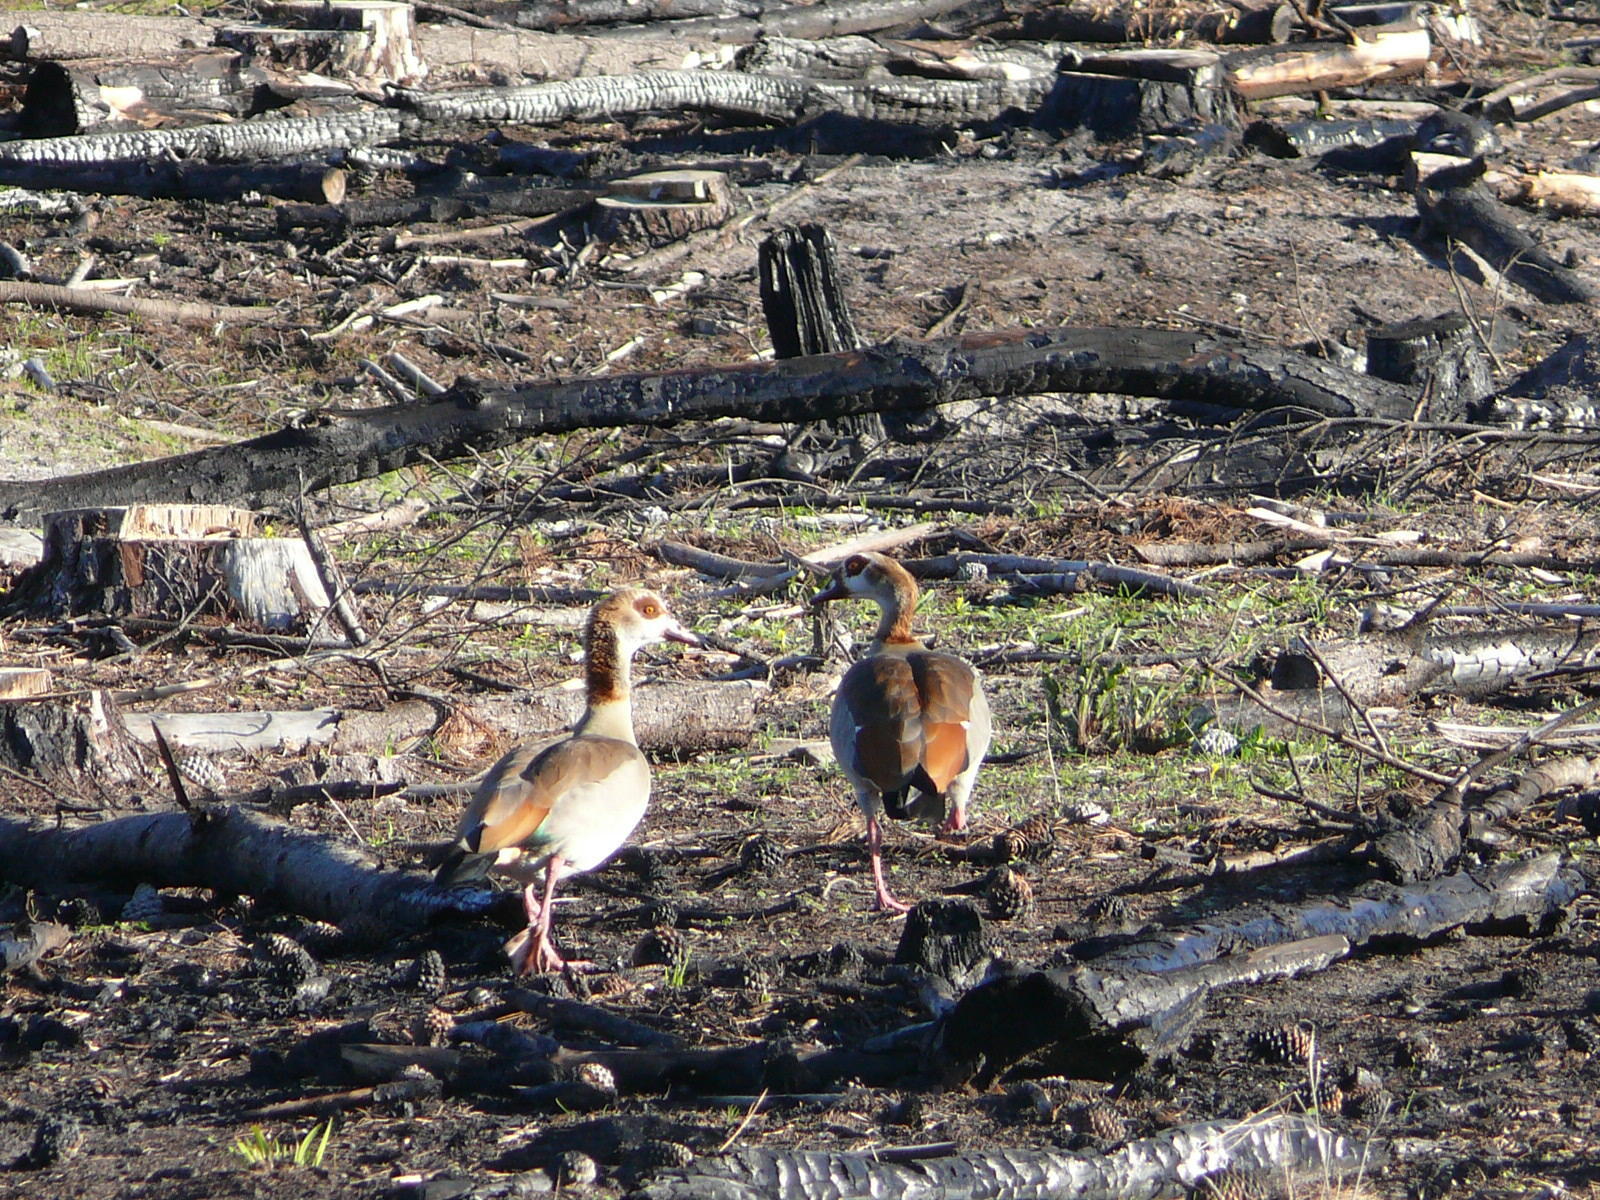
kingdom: Animalia
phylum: Chordata
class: Aves
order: Anseriformes
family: Anatidae
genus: Alopochen
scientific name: Alopochen aegyptiaca
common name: Egyptian goose
